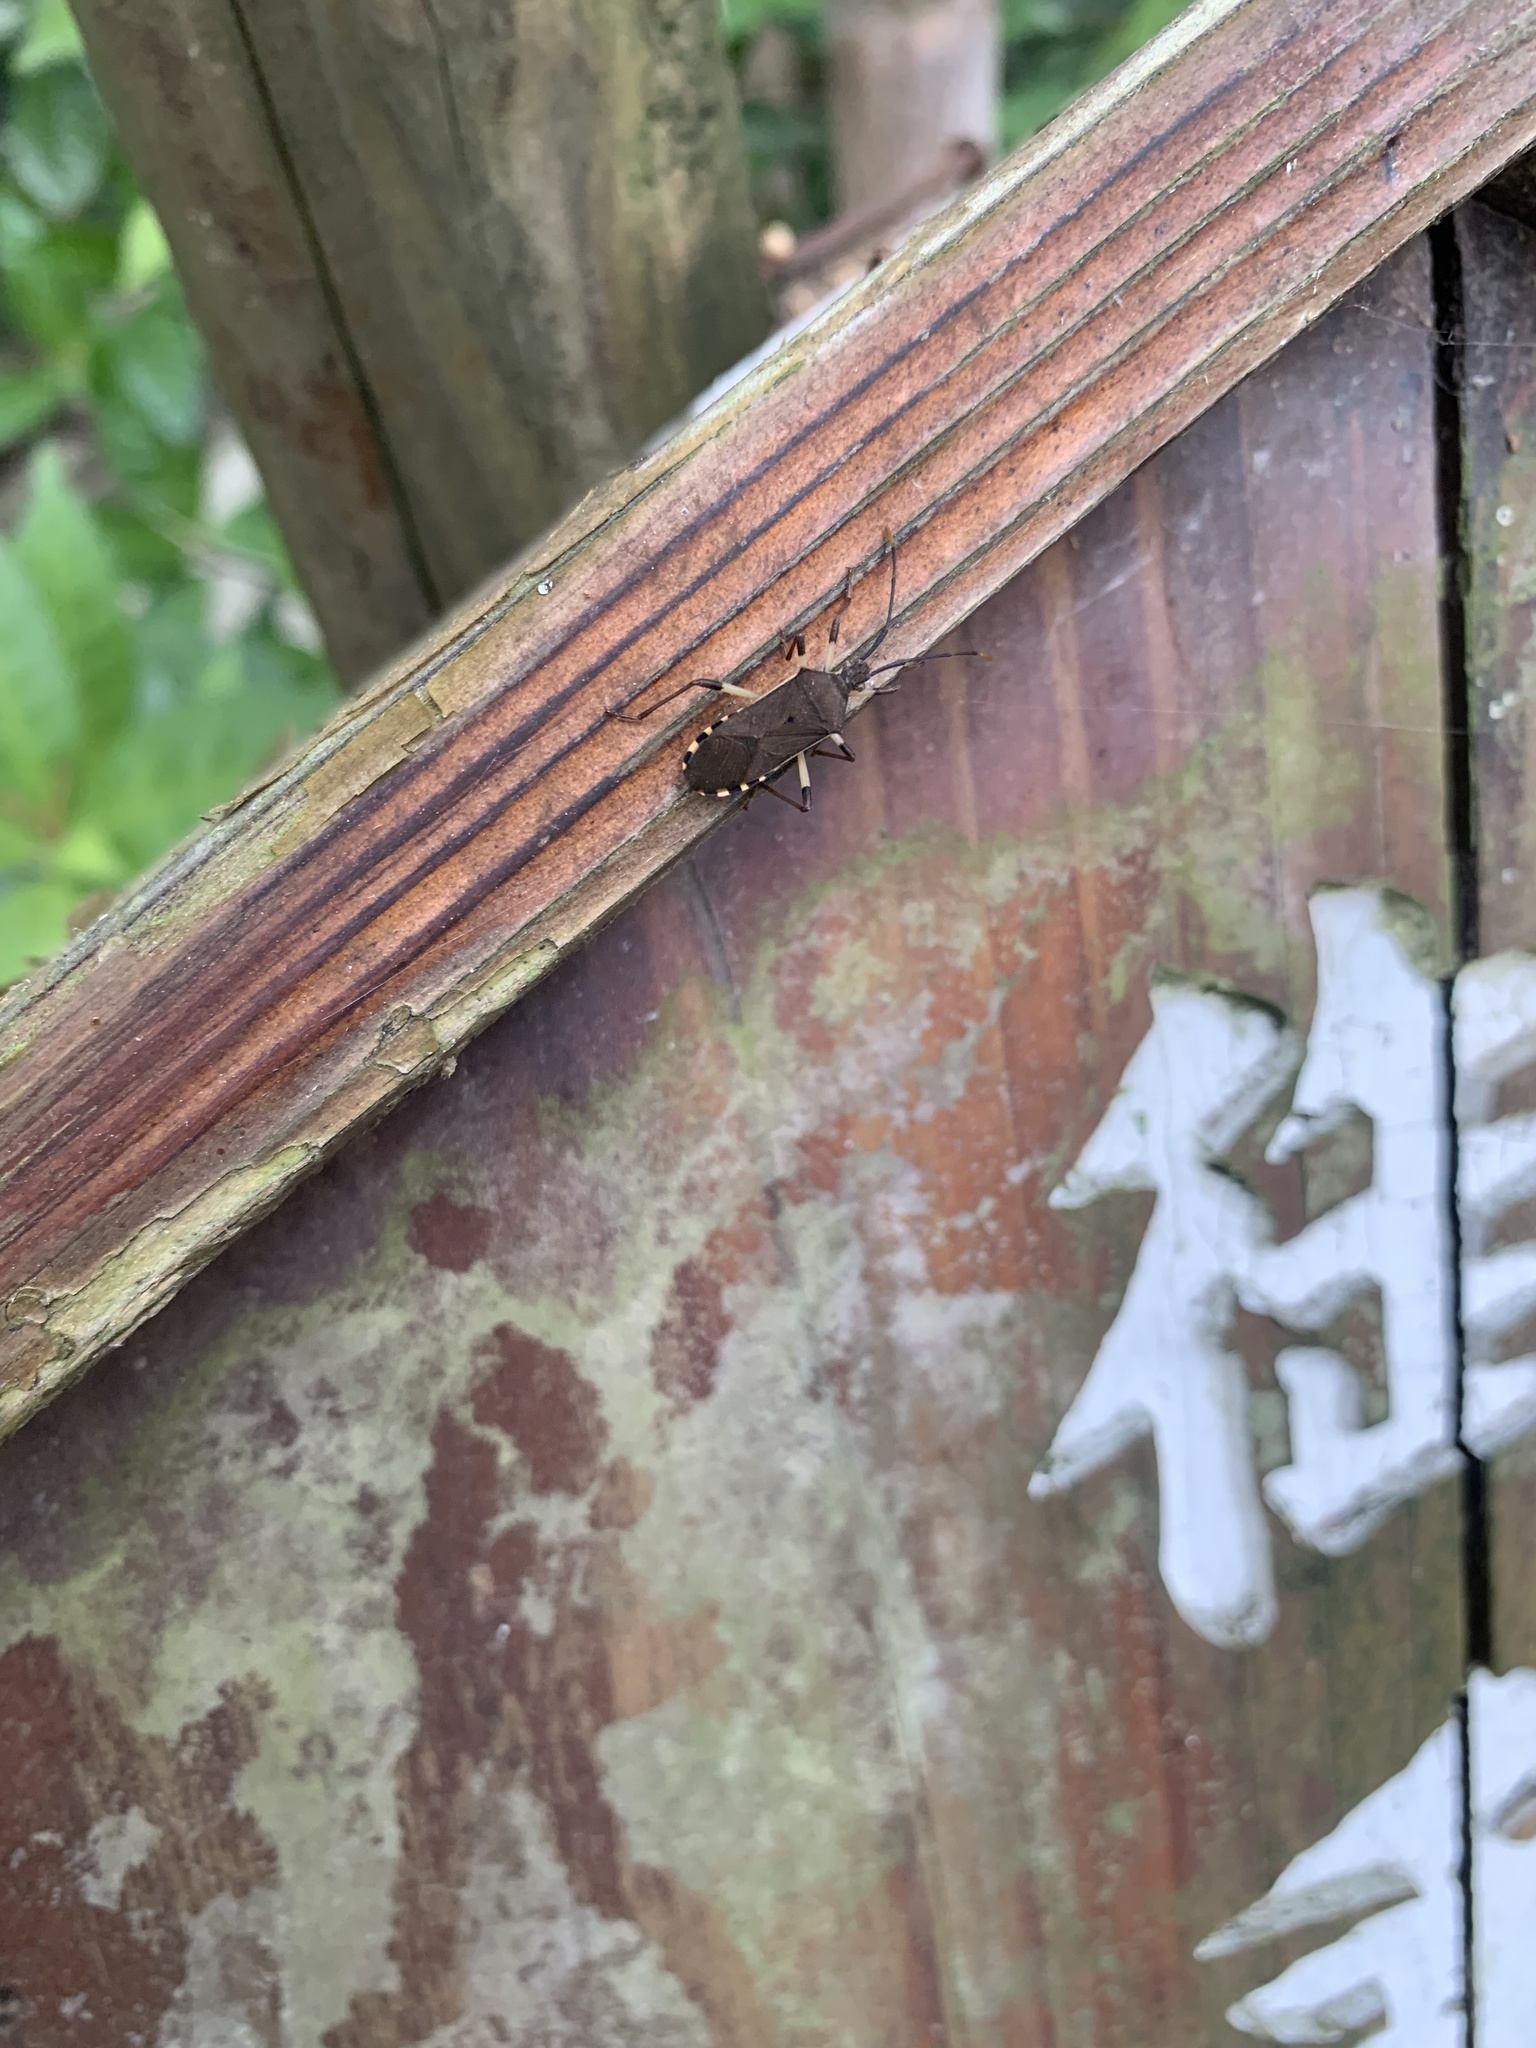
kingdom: Animalia
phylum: Arthropoda
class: Insecta
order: Hemiptera
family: Coreidae
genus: Plinachtus
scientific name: Plinachtus bicoloripes
